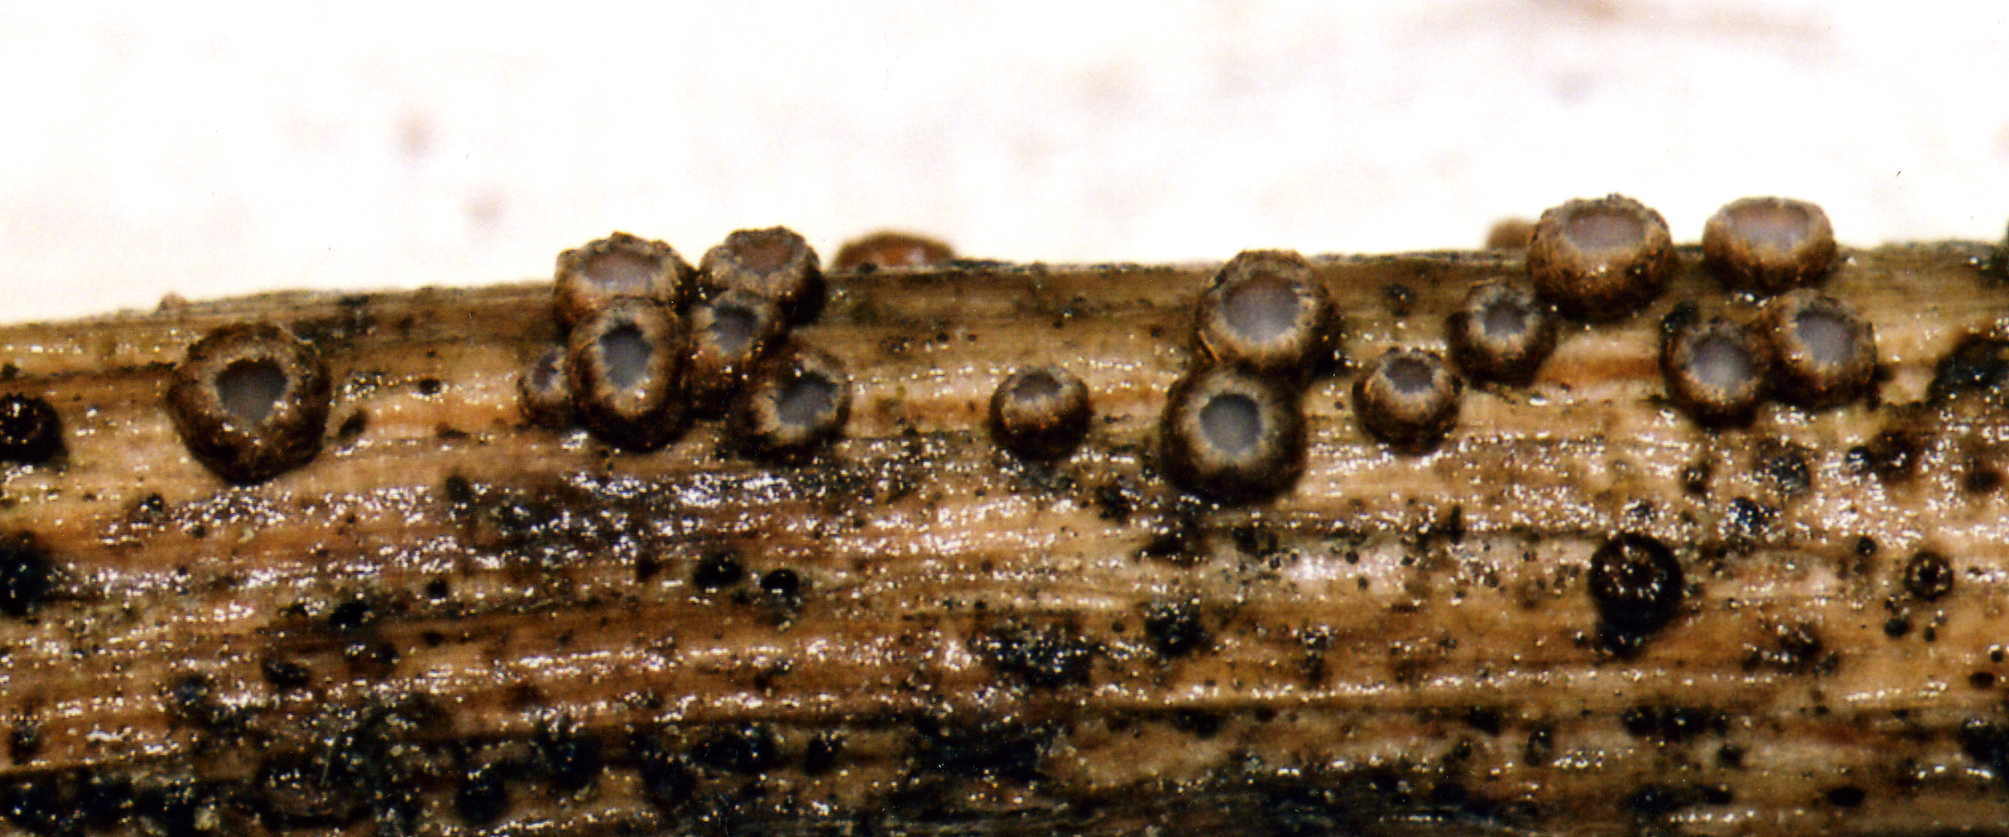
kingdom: Fungi
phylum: Ascomycota
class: Leotiomycetes
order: Helotiales
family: Solenopeziaceae
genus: Trichopezizella
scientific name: Trichopezizella barbata
